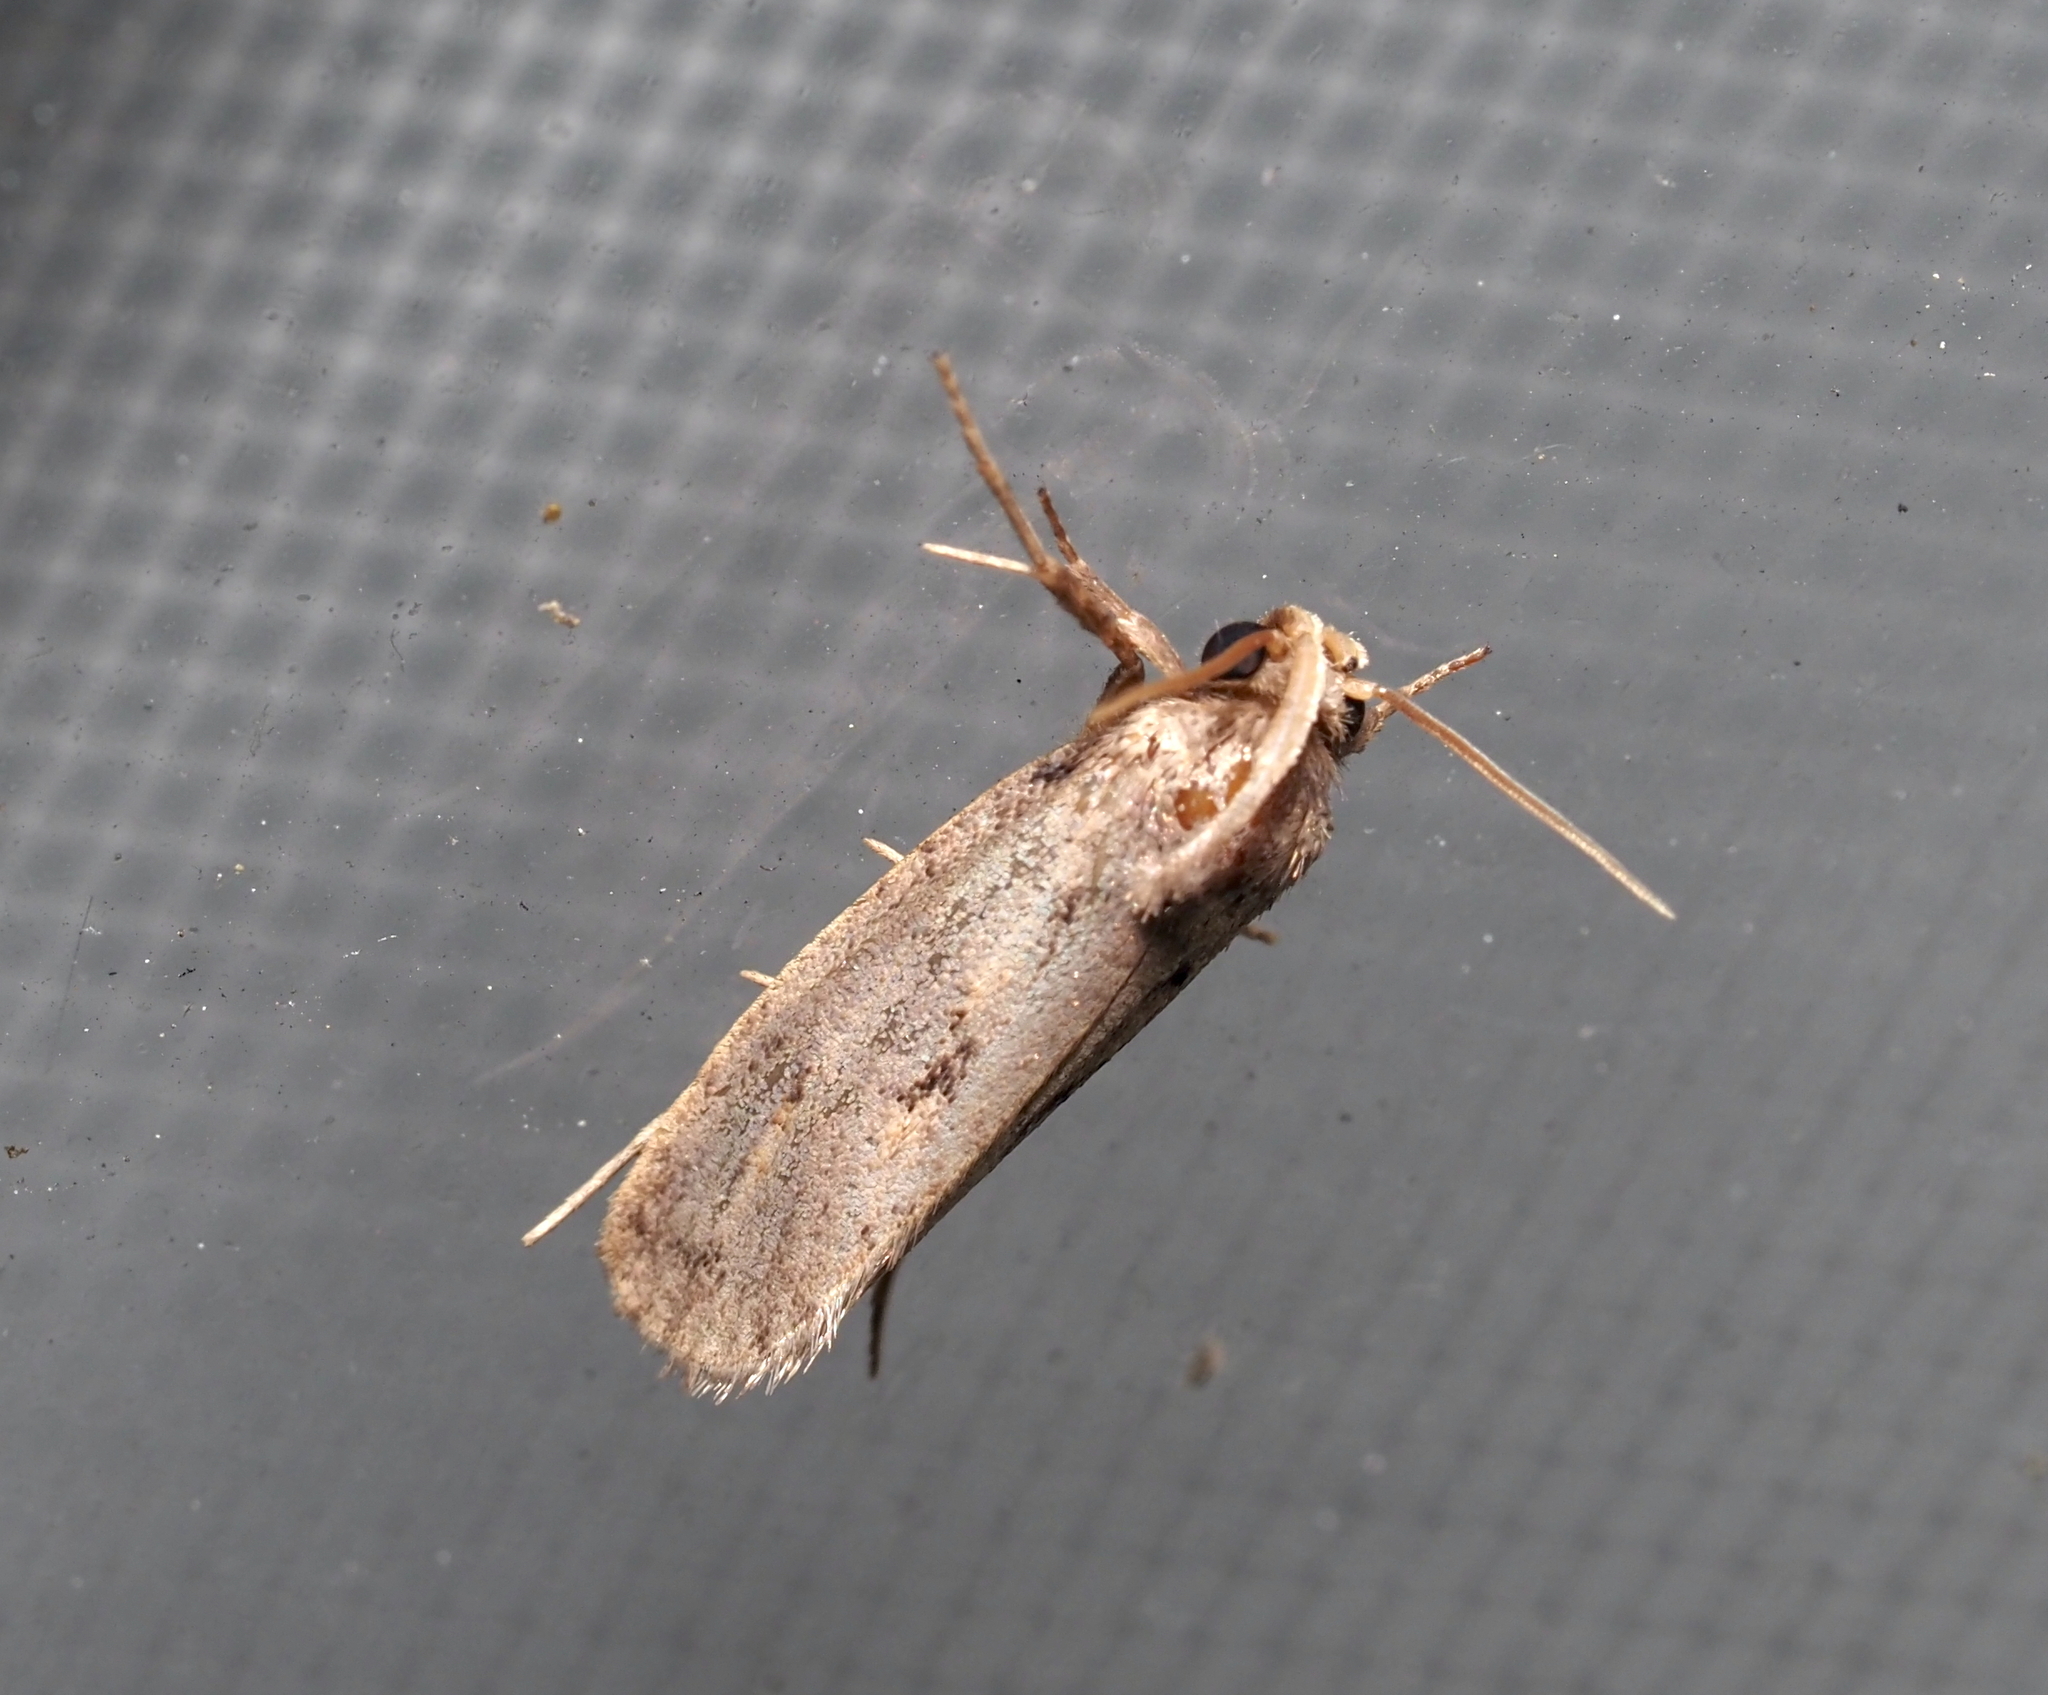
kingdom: Animalia
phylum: Arthropoda
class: Insecta
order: Lepidoptera
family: Tineidae
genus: Acrolophus
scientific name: Acrolophus popeanella
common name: Clemens' grass tubeworm moth
